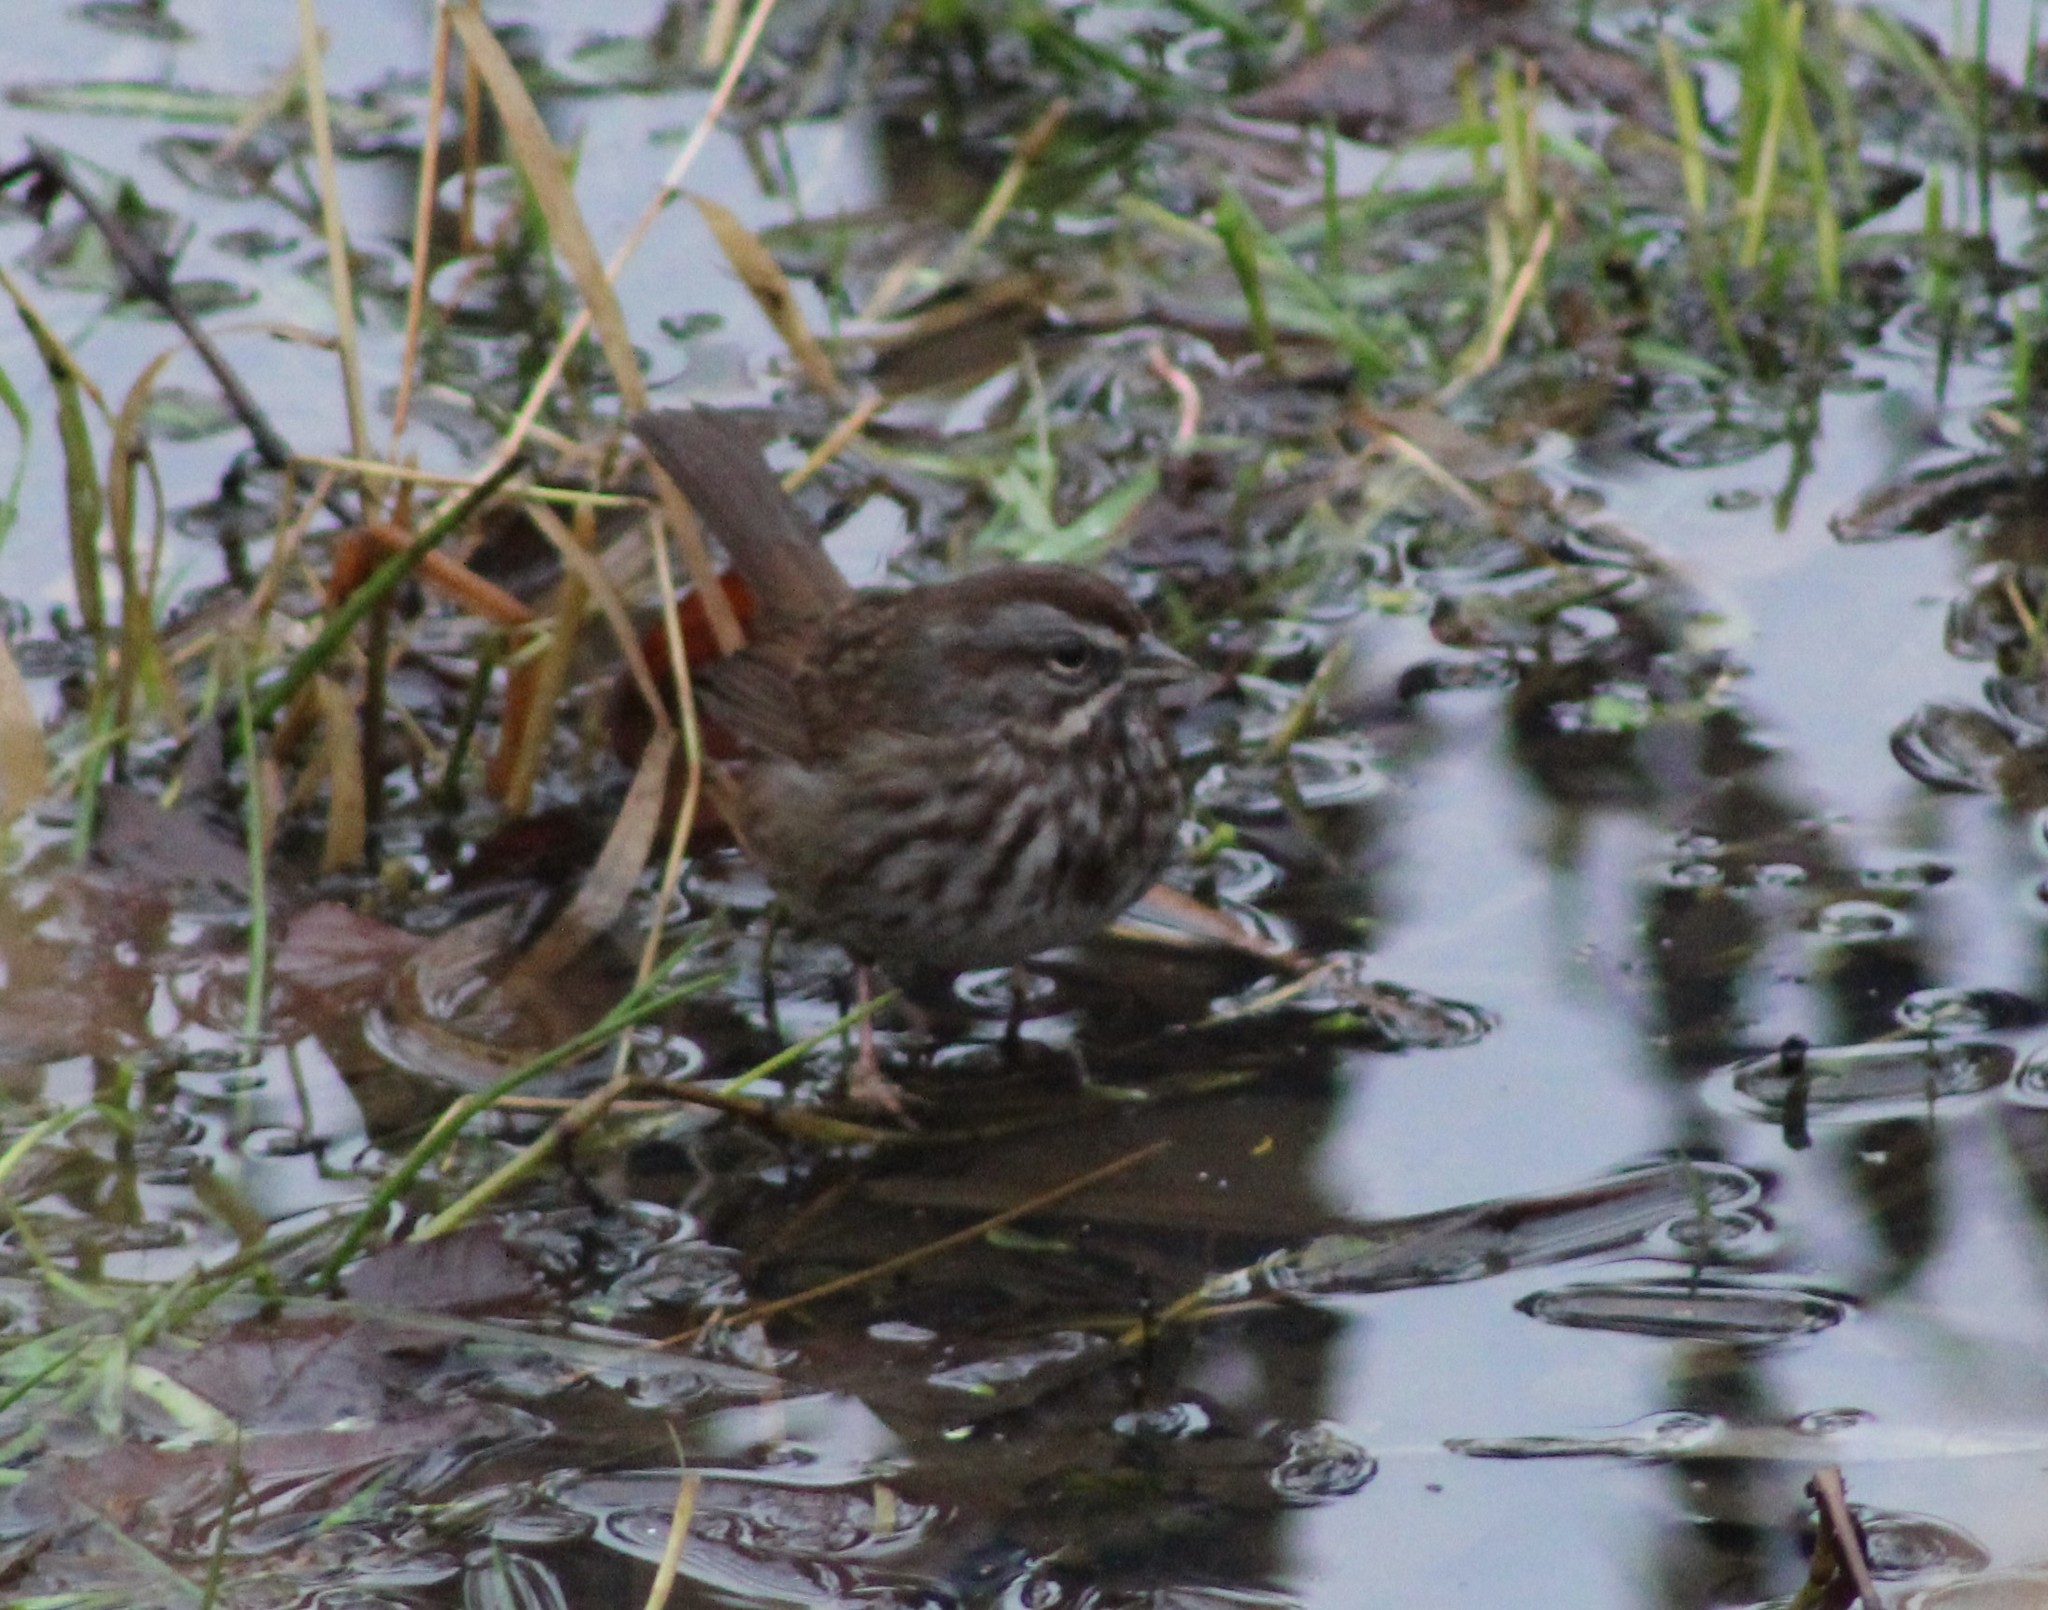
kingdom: Animalia
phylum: Chordata
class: Aves
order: Passeriformes
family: Passerellidae
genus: Melospiza
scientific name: Melospiza melodia
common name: Song sparrow
